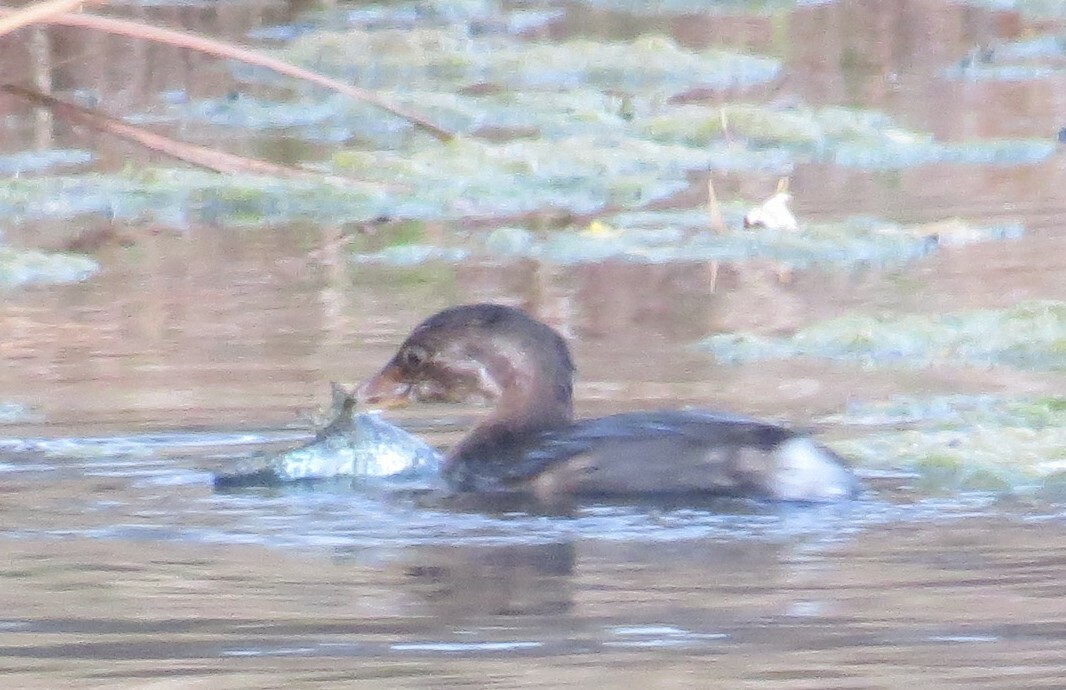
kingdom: Animalia
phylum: Chordata
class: Aves
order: Podicipediformes
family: Podicipedidae
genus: Podilymbus
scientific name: Podilymbus podiceps
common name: Pied-billed grebe
